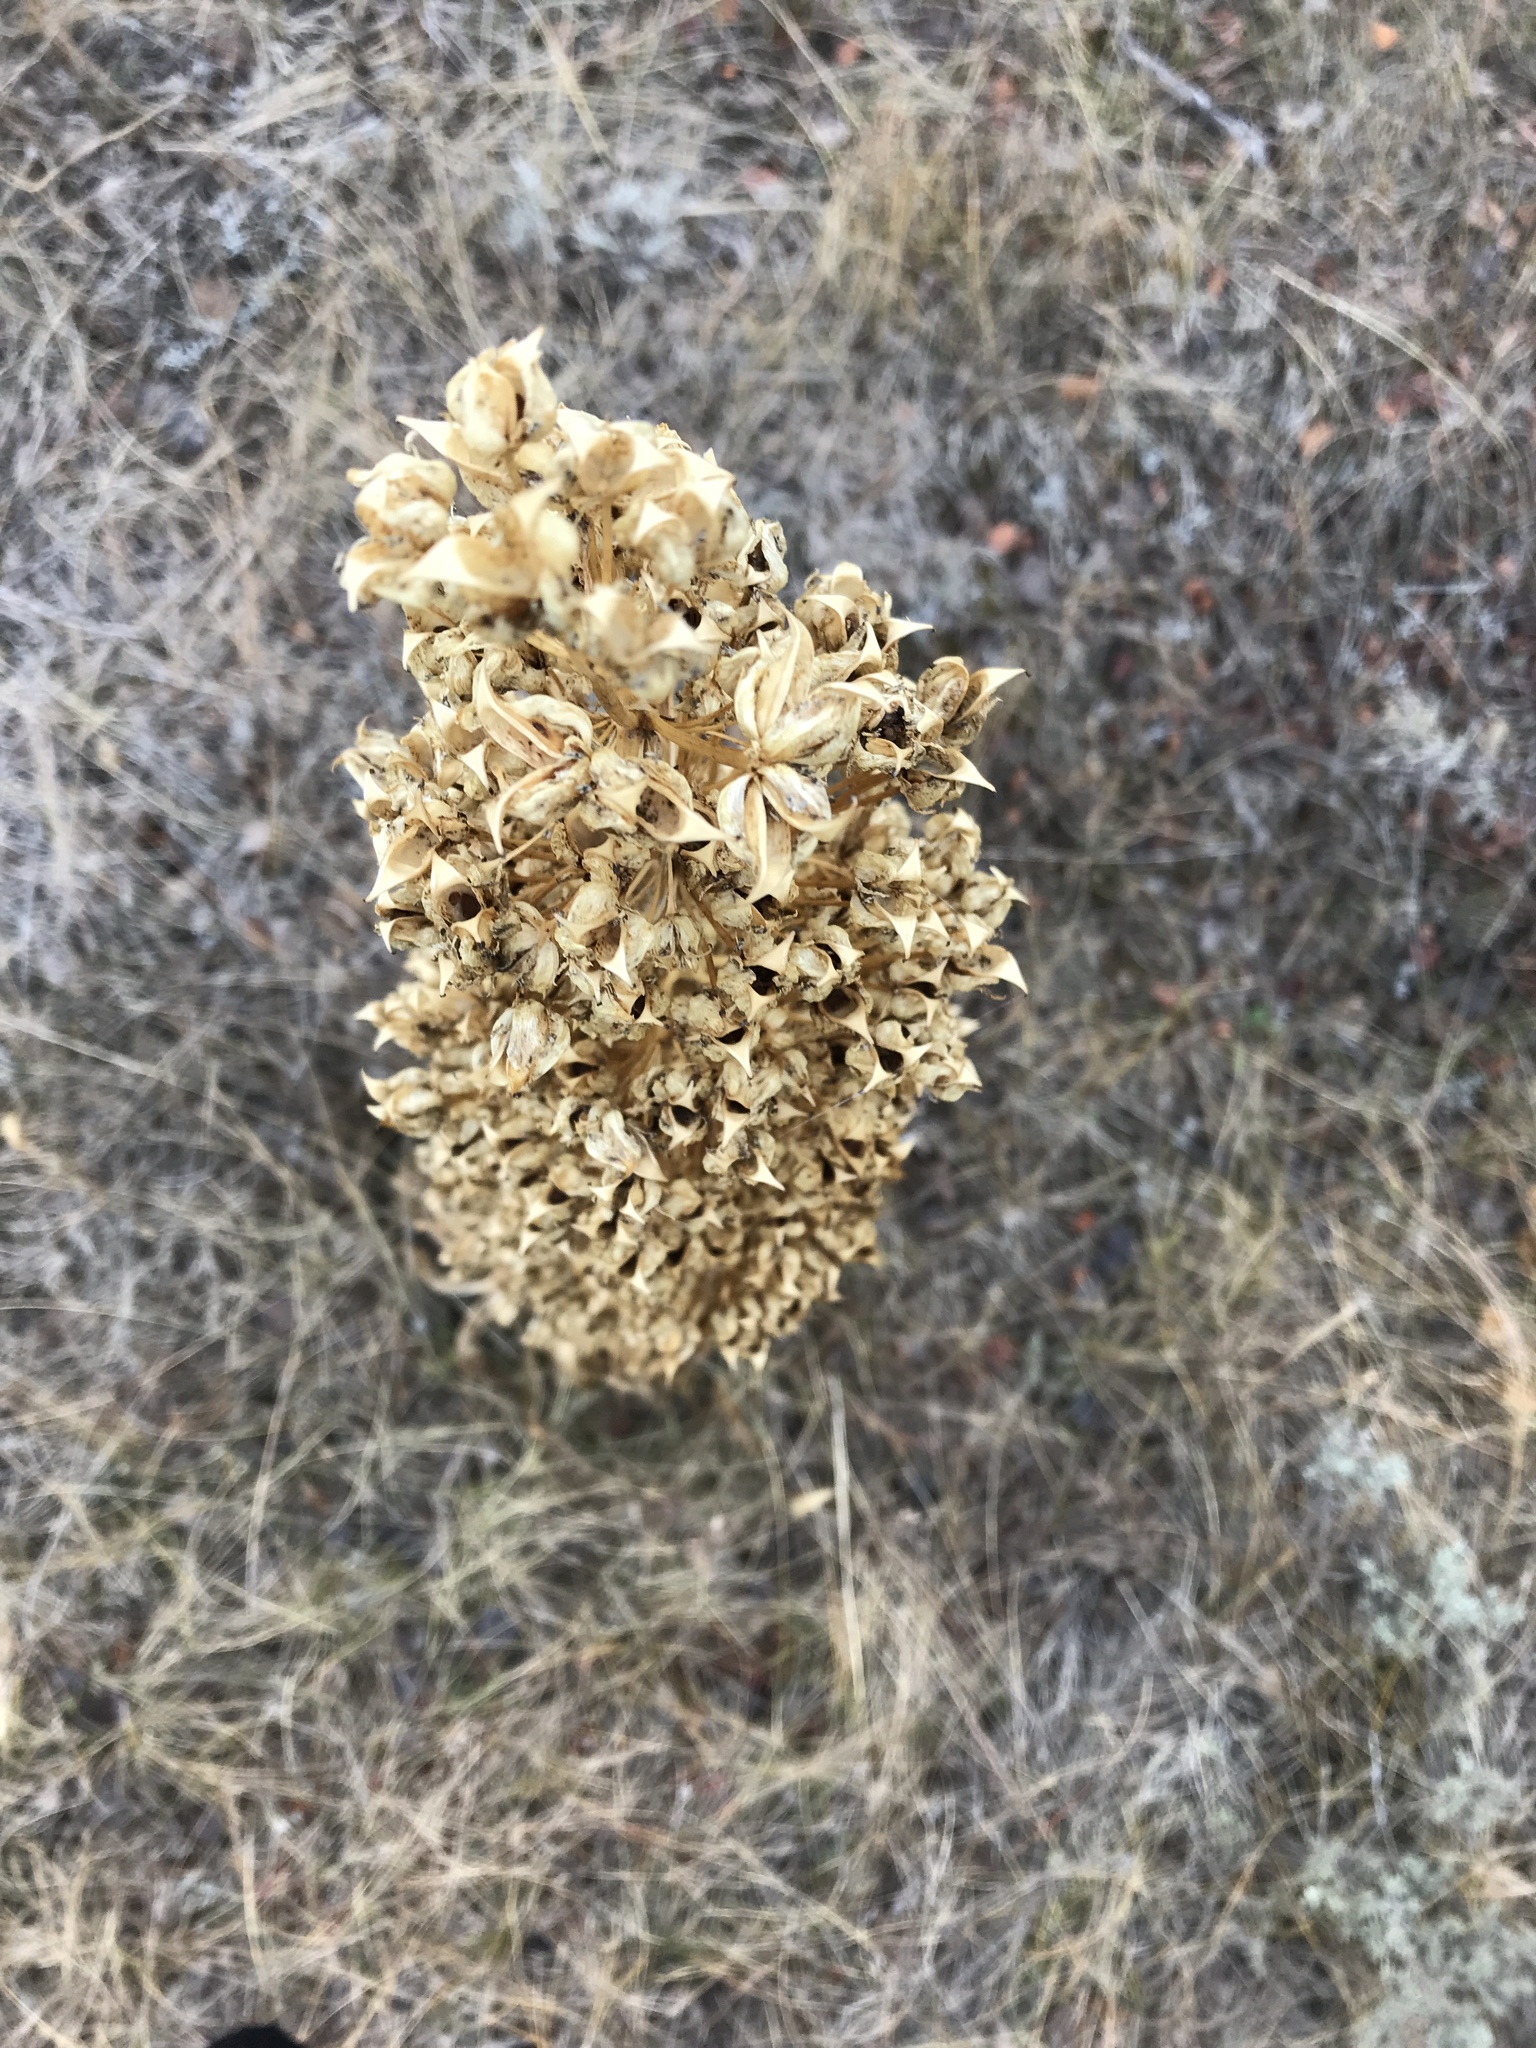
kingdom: Plantae
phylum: Tracheophyta
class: Magnoliopsida
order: Lamiales
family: Scrophulariaceae
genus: Verbascum
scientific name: Verbascum thapsus
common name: Common mullein
